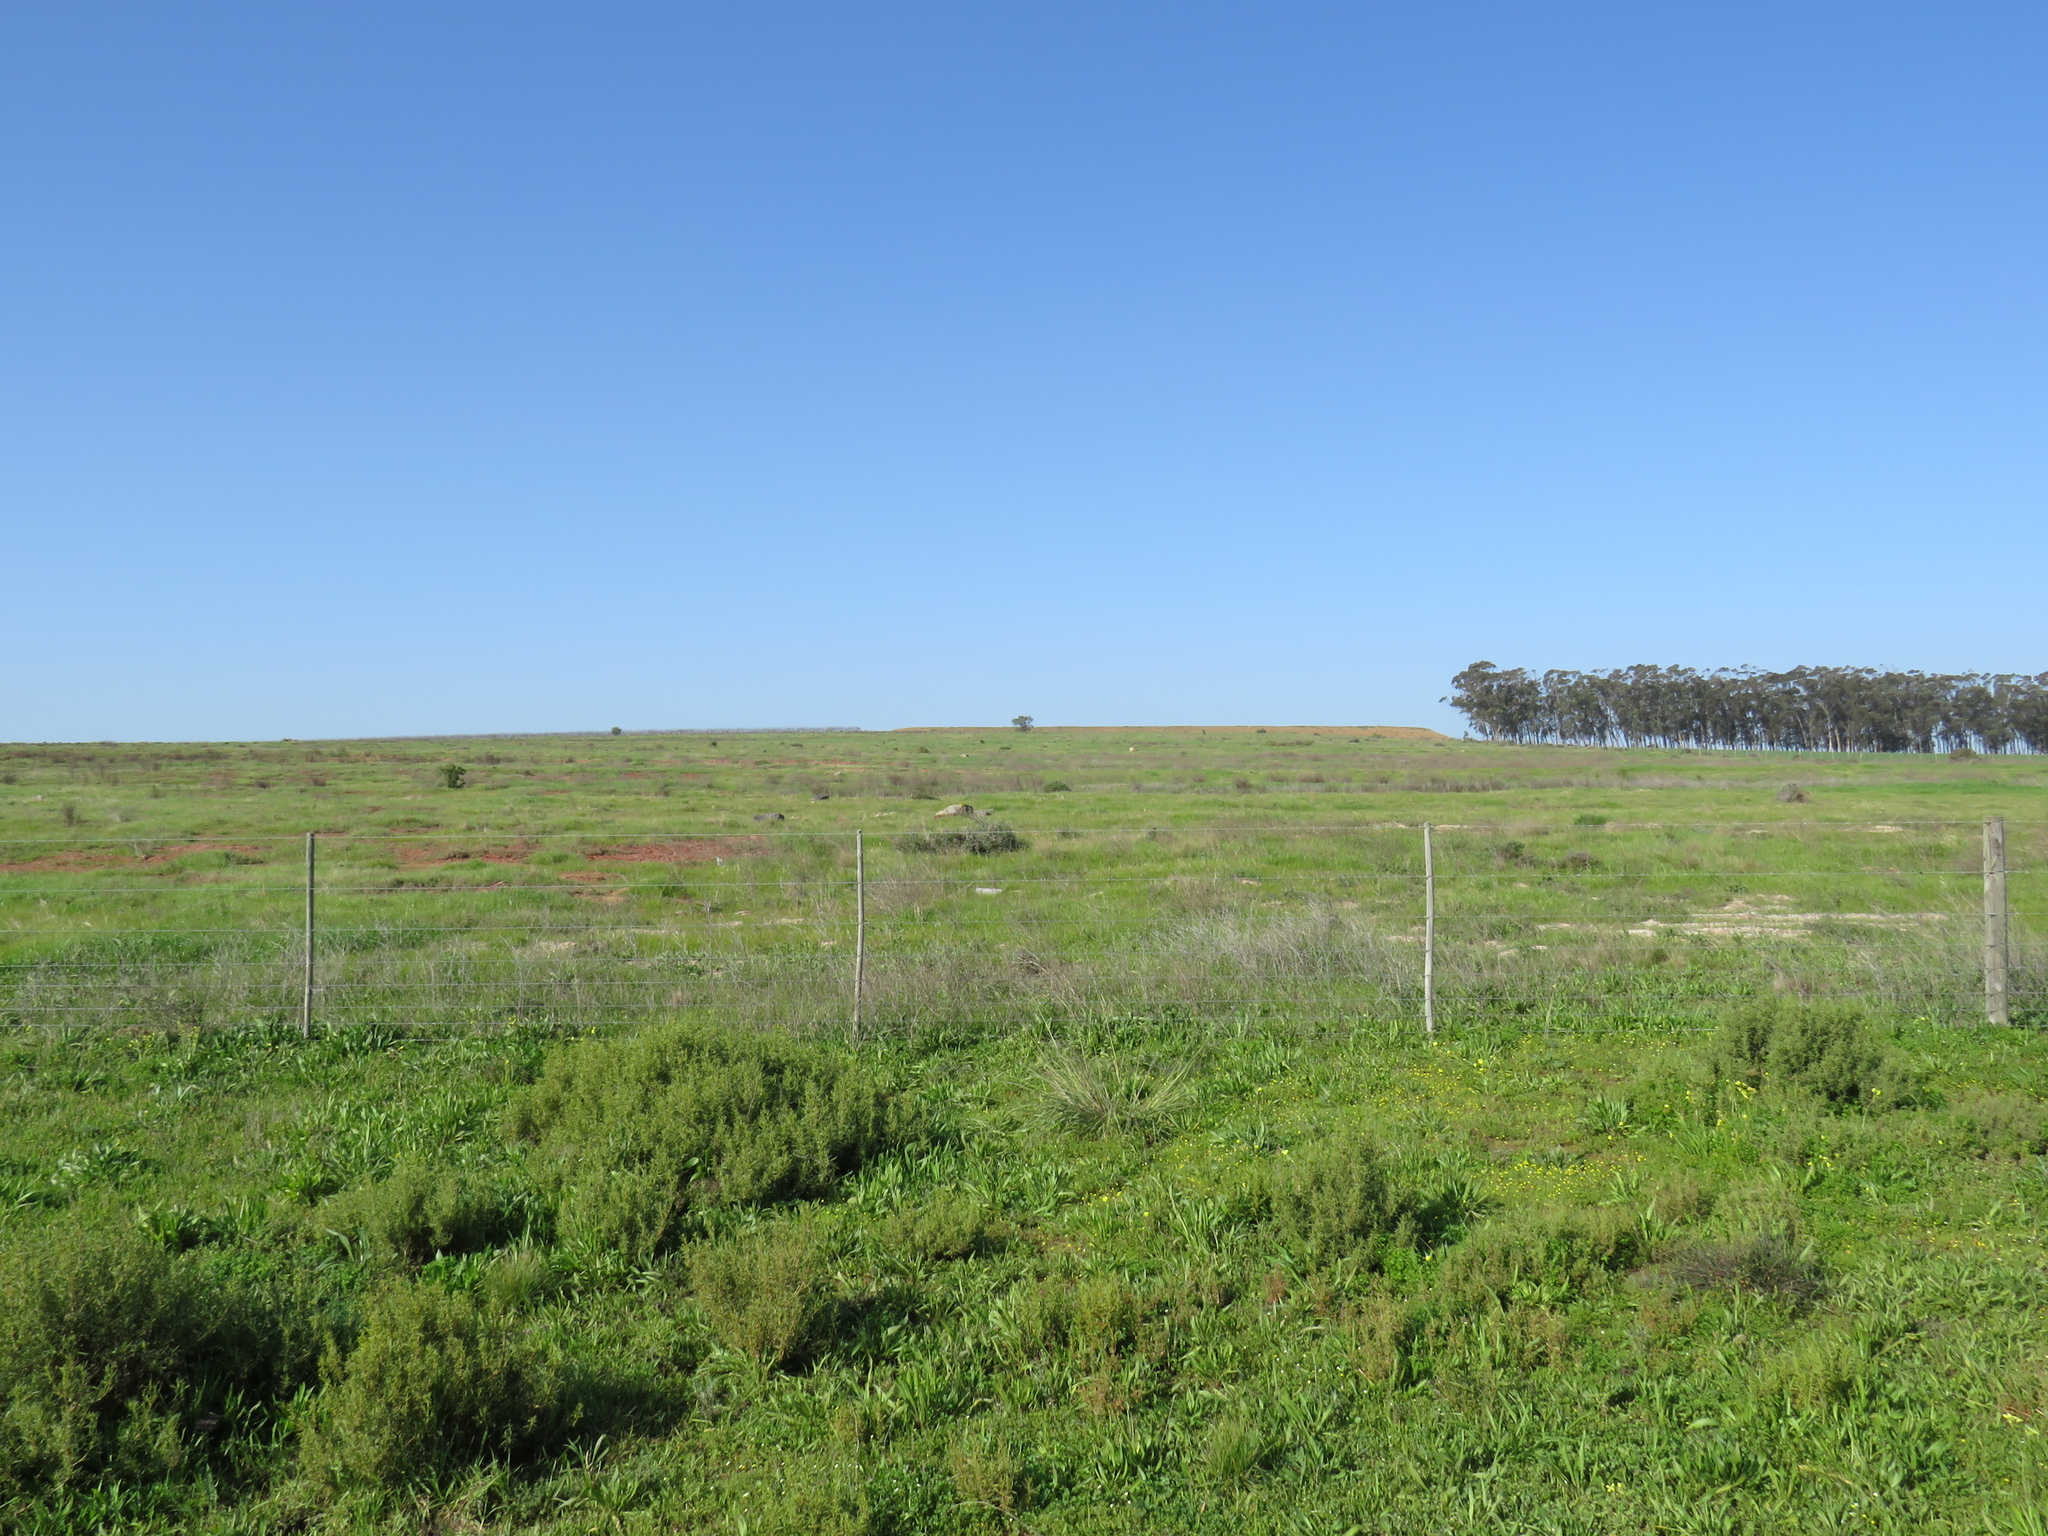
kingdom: Animalia
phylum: Chordata
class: Aves
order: Passeriformes
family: Fringillidae
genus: Crithagra
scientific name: Crithagra flaviventris
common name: Yellow canary
